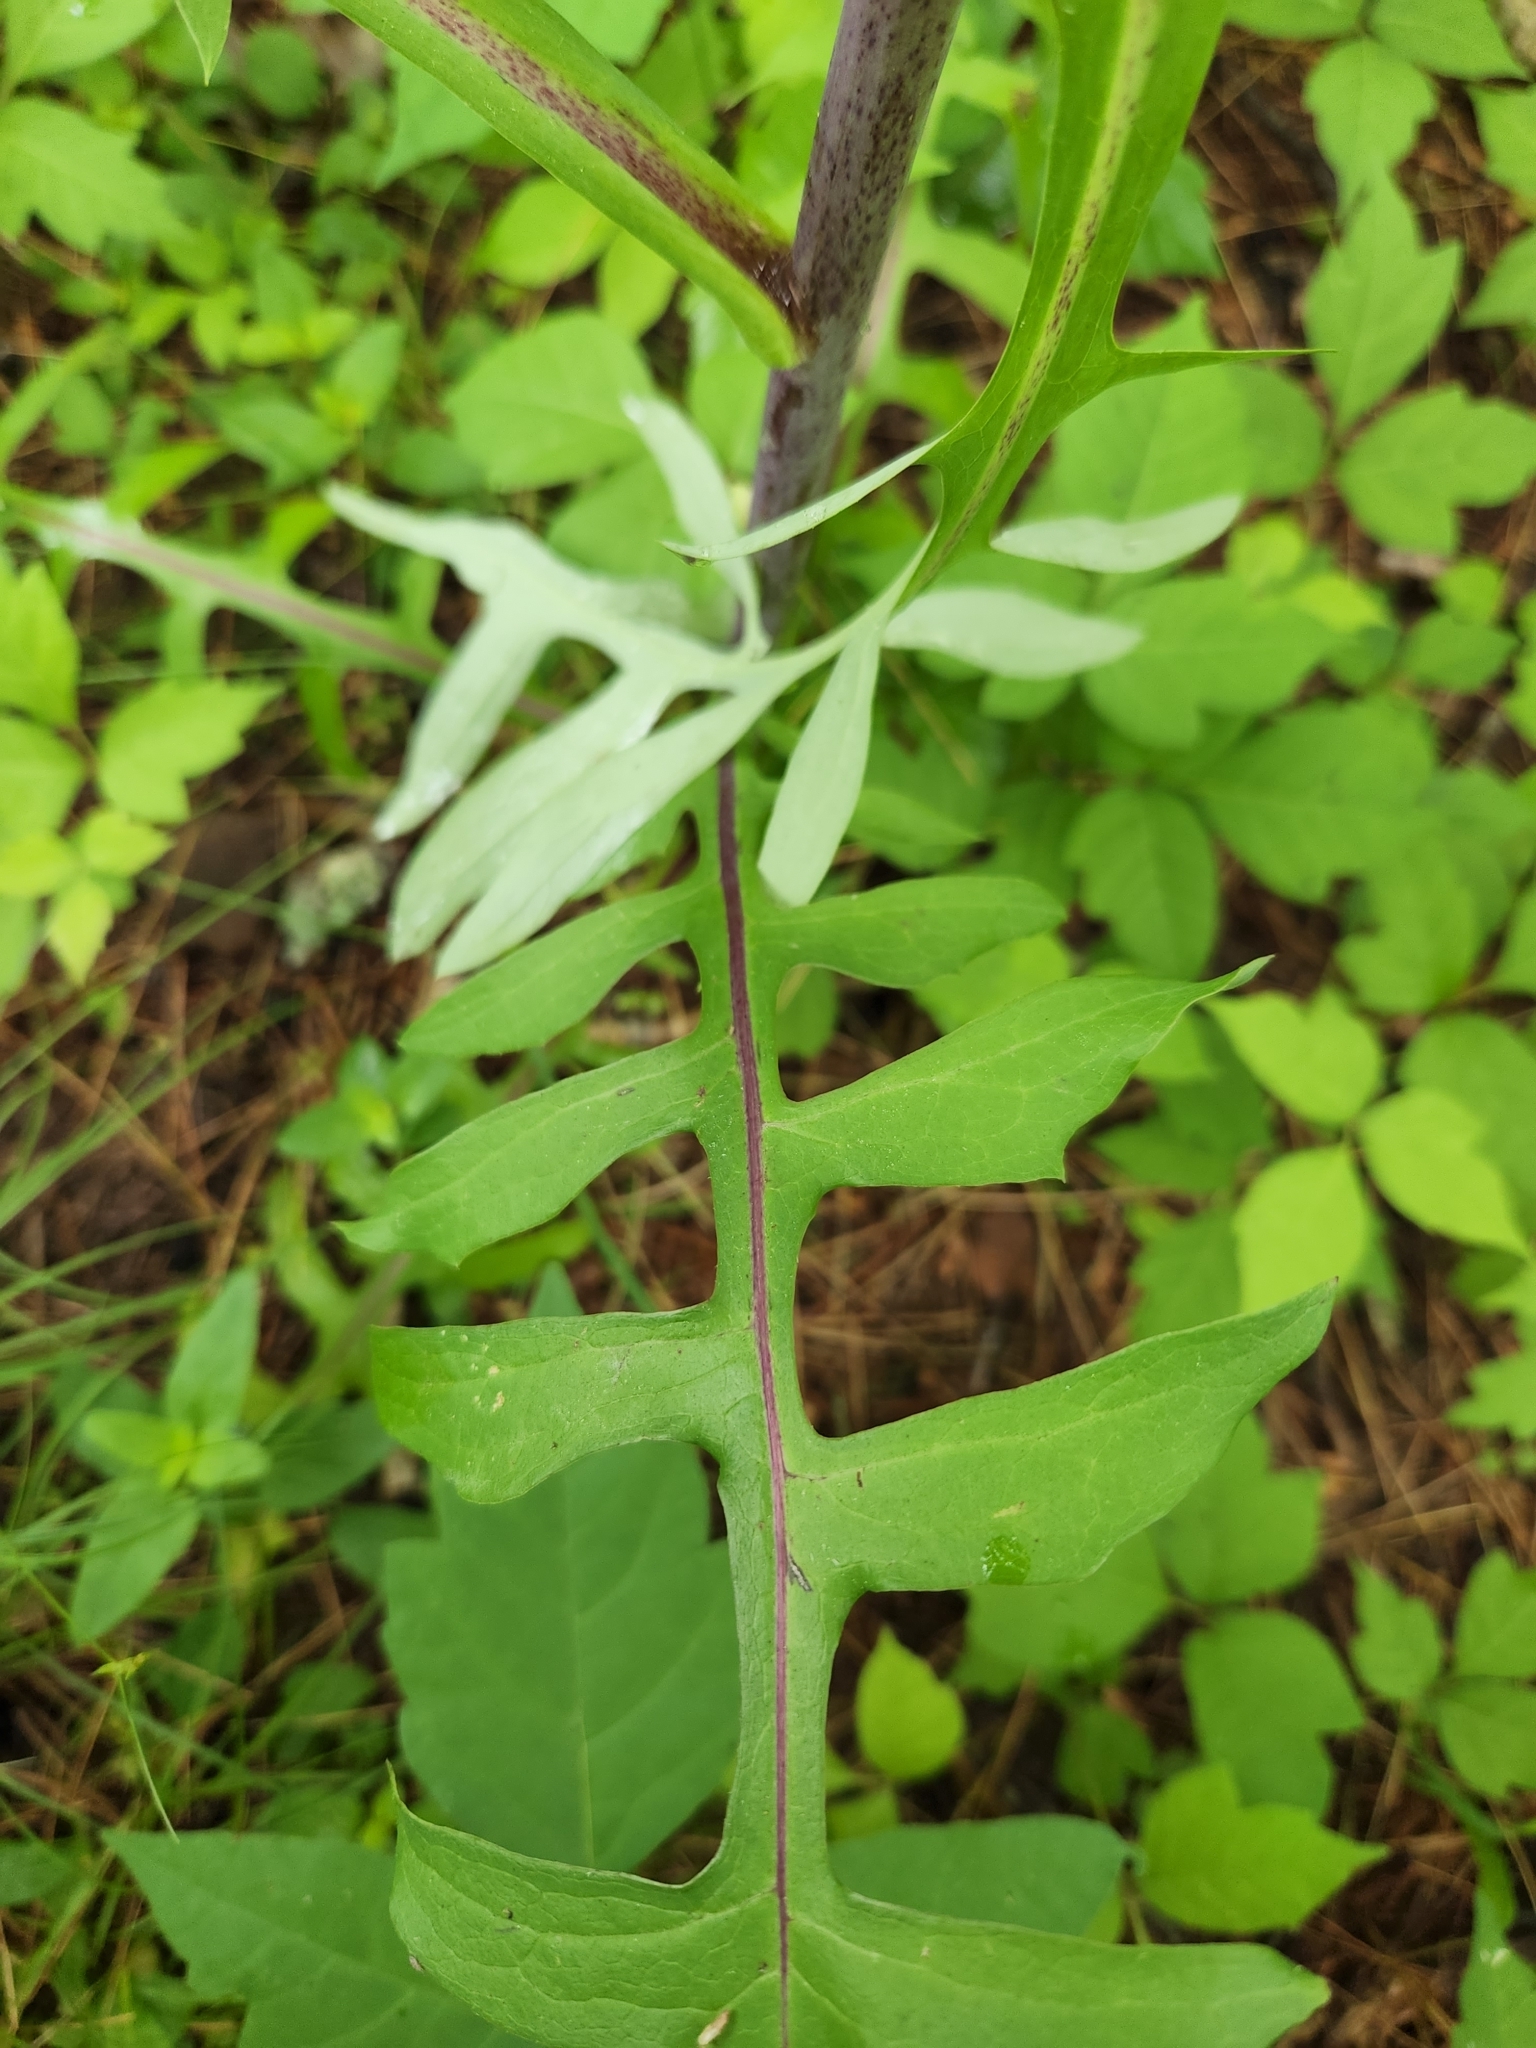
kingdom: Plantae
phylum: Tracheophyta
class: Magnoliopsida
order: Asterales
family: Asteraceae
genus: Lactuca
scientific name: Lactuca canadensis
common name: Canada lettuce
